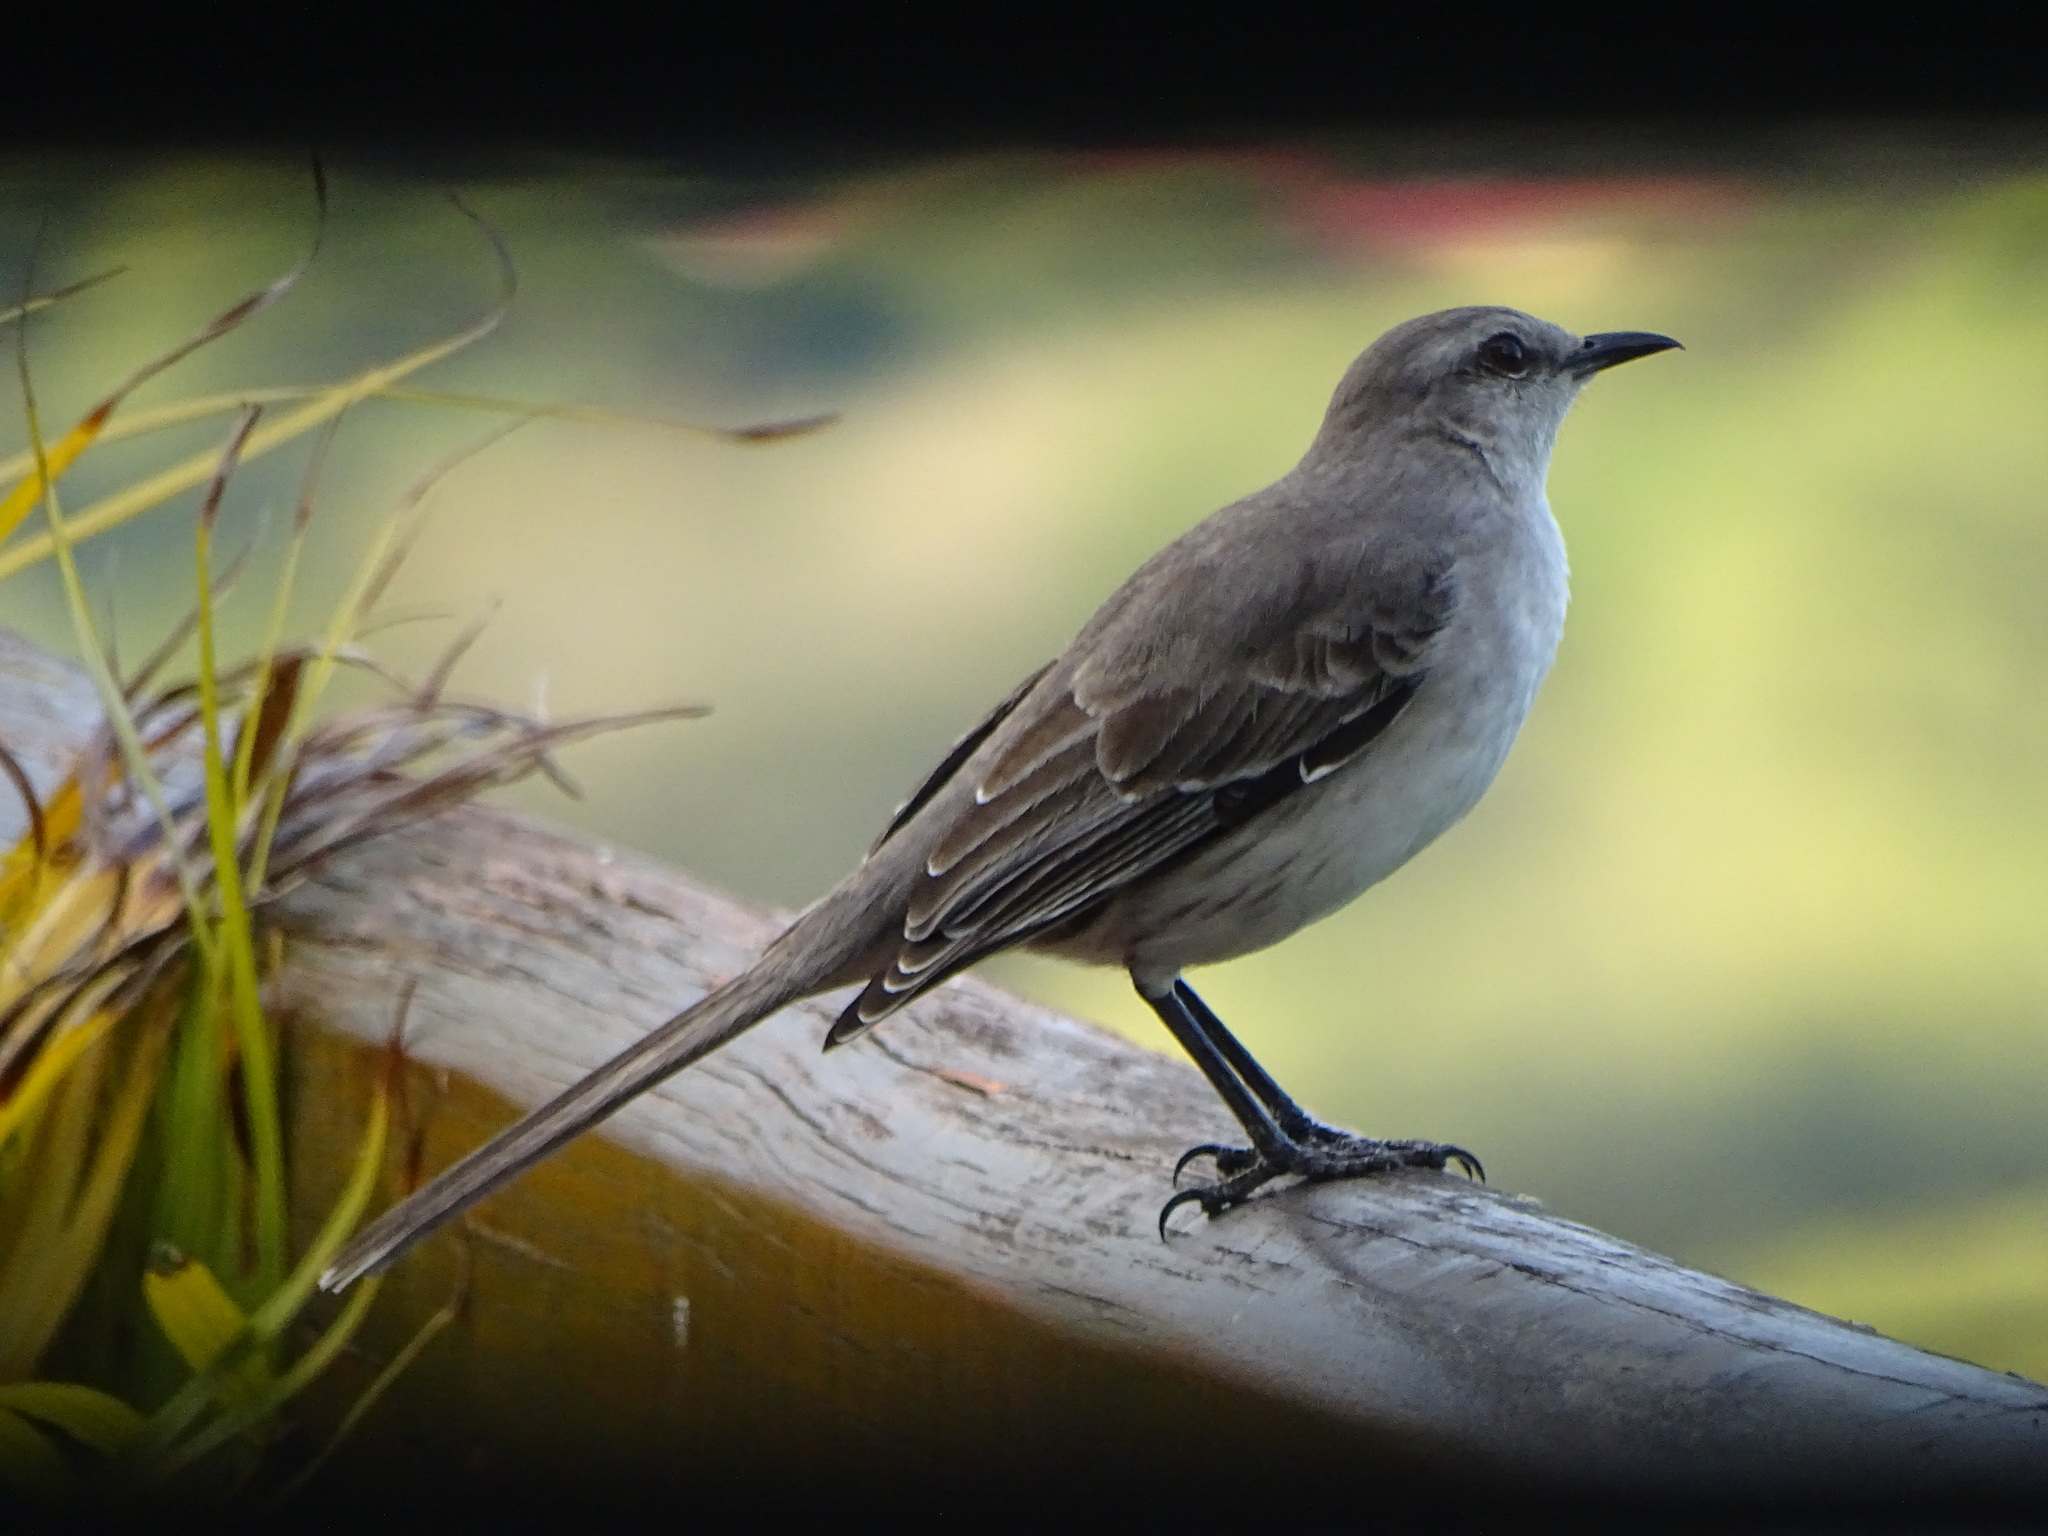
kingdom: Animalia
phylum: Chordata
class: Aves
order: Passeriformes
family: Mimidae
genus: Mimus
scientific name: Mimus gilvus
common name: Tropical mockingbird
